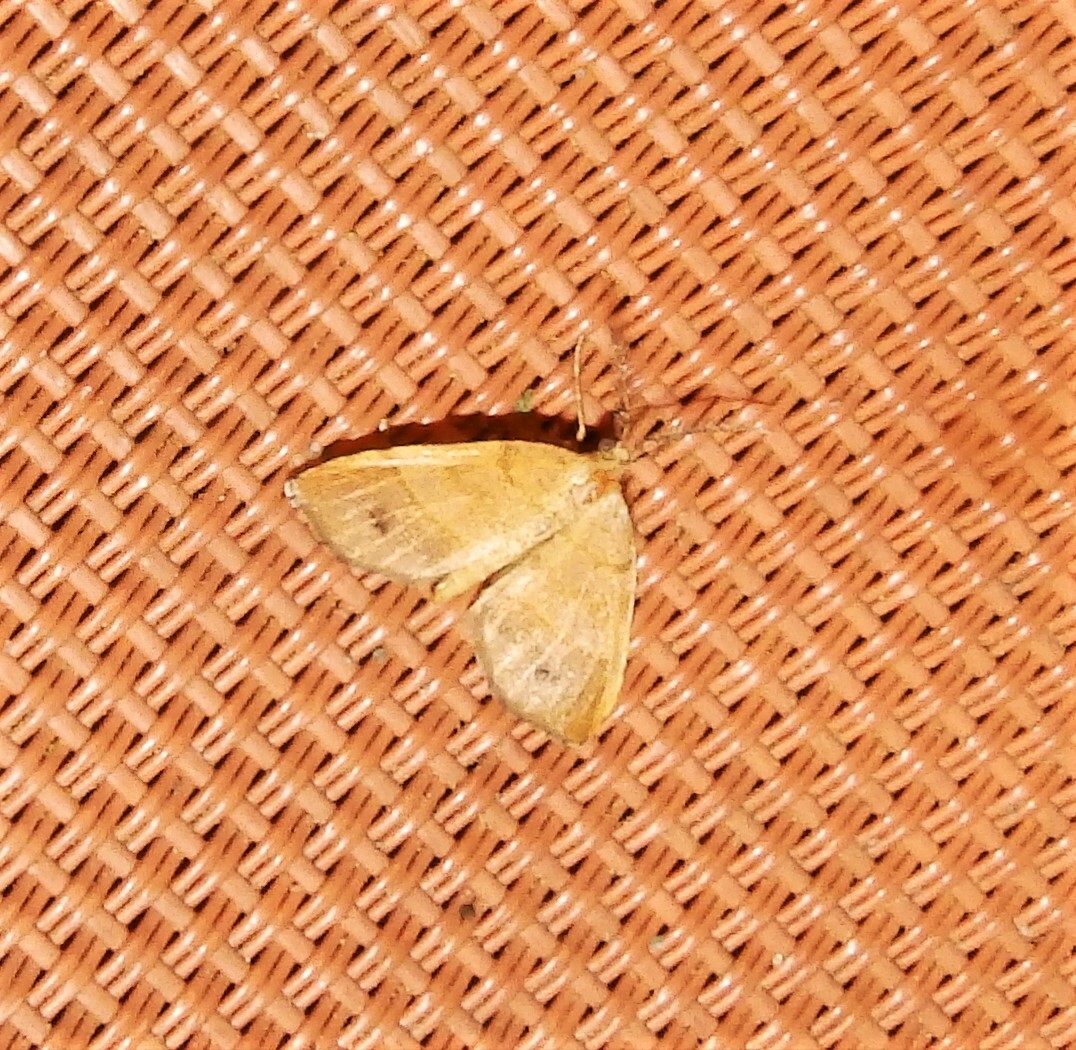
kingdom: Animalia
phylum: Arthropoda
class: Insecta
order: Lepidoptera
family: Geometridae
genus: Mellilla
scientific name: Mellilla xanthometata
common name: Orange wing moth
